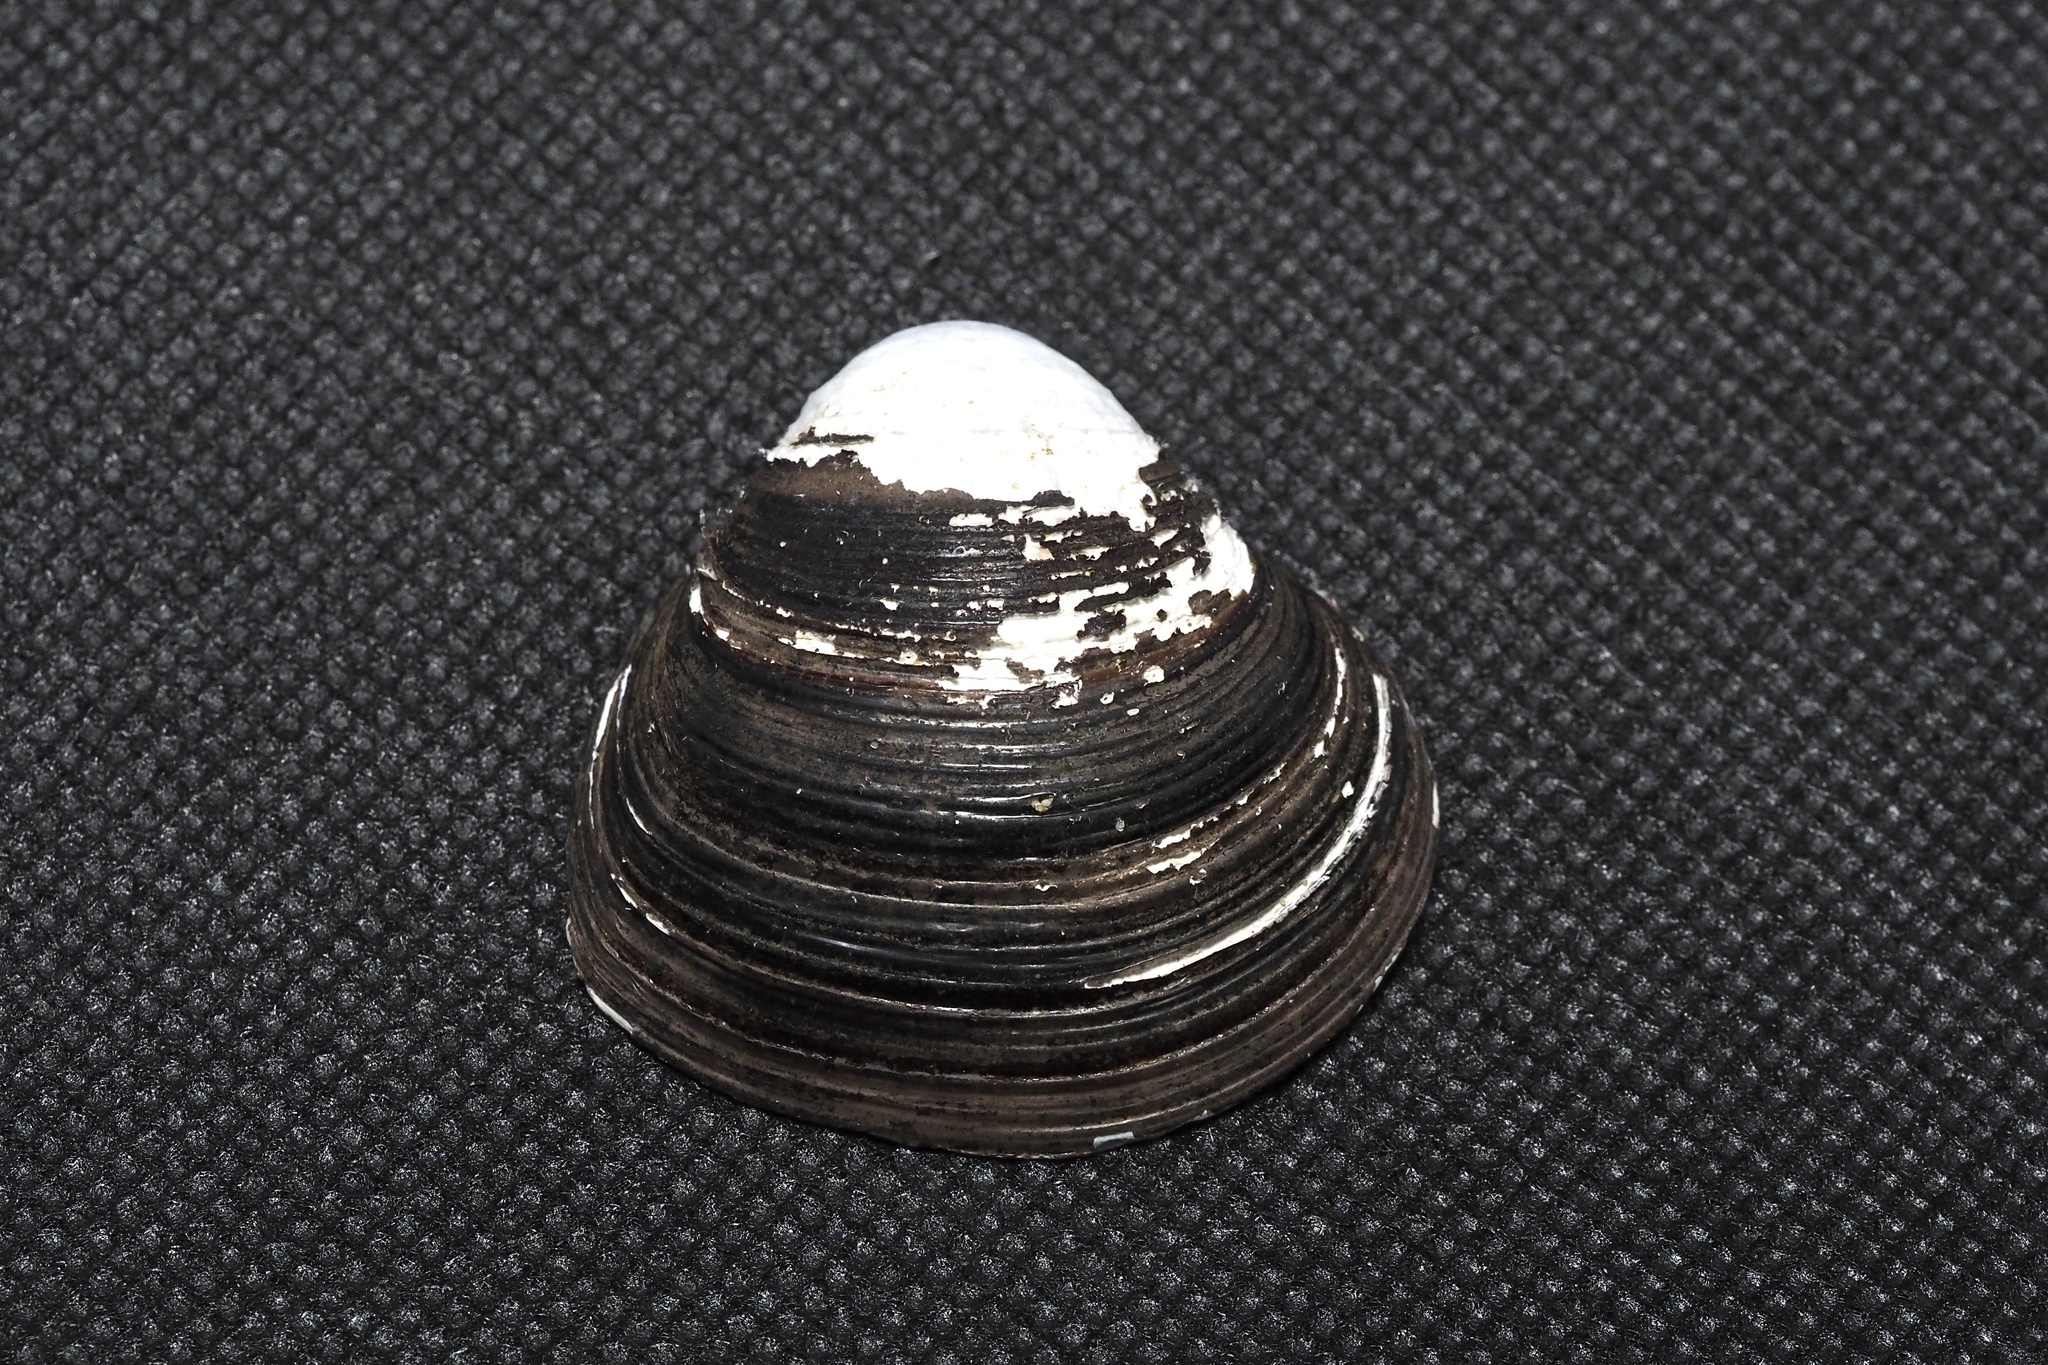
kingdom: Animalia
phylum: Mollusca
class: Bivalvia
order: Venerida
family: Cyrenidae
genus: Corbicula
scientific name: Corbicula leana
